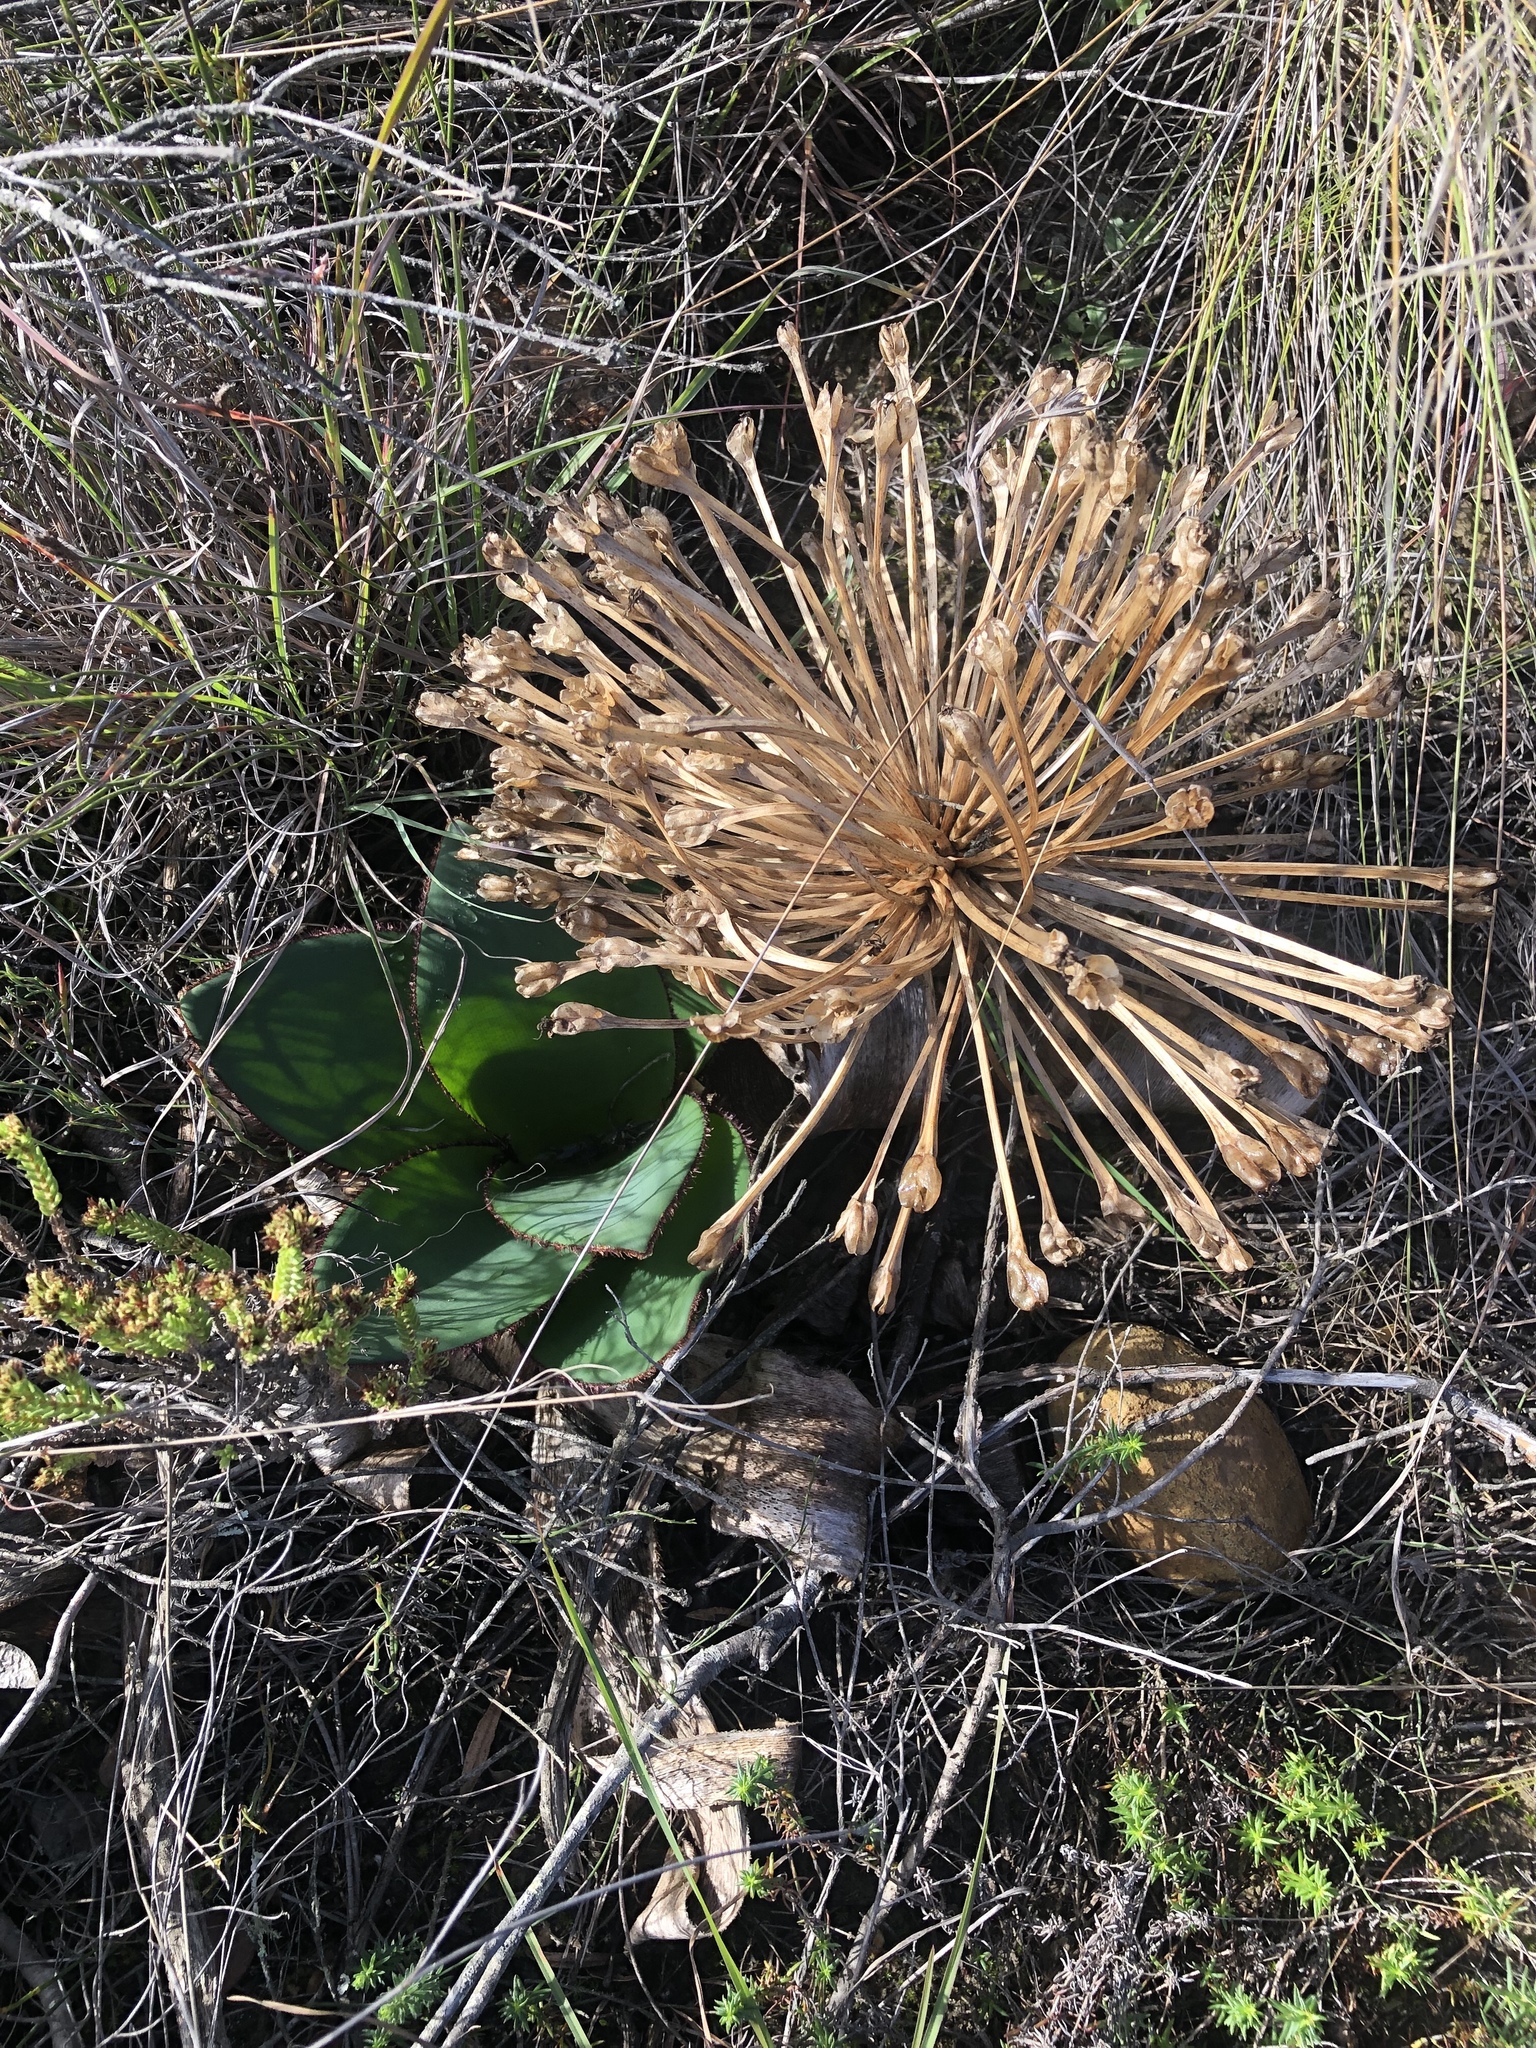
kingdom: Plantae
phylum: Tracheophyta
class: Liliopsida
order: Asparagales
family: Amaryllidaceae
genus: Crossyne
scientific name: Crossyne guttata
